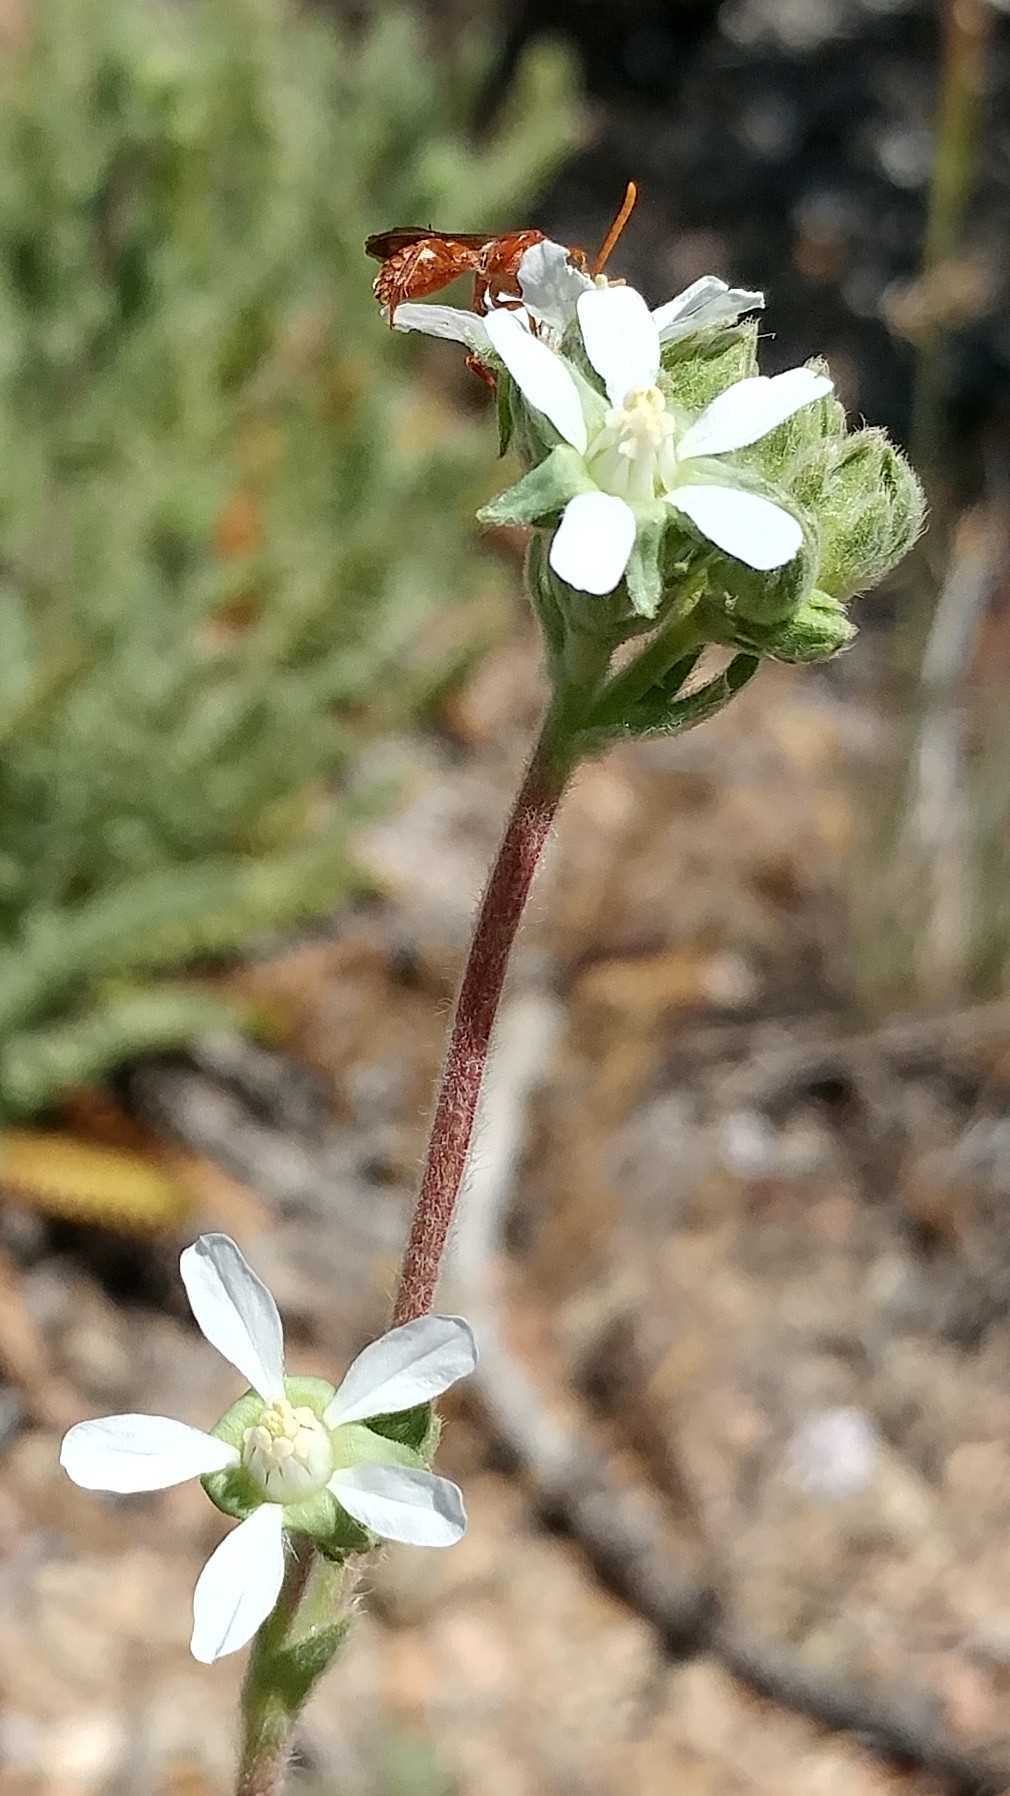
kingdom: Plantae
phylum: Tracheophyta
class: Magnoliopsida
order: Rosales
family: Rosaceae
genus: Potentilla
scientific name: Potentilla rydbergii
